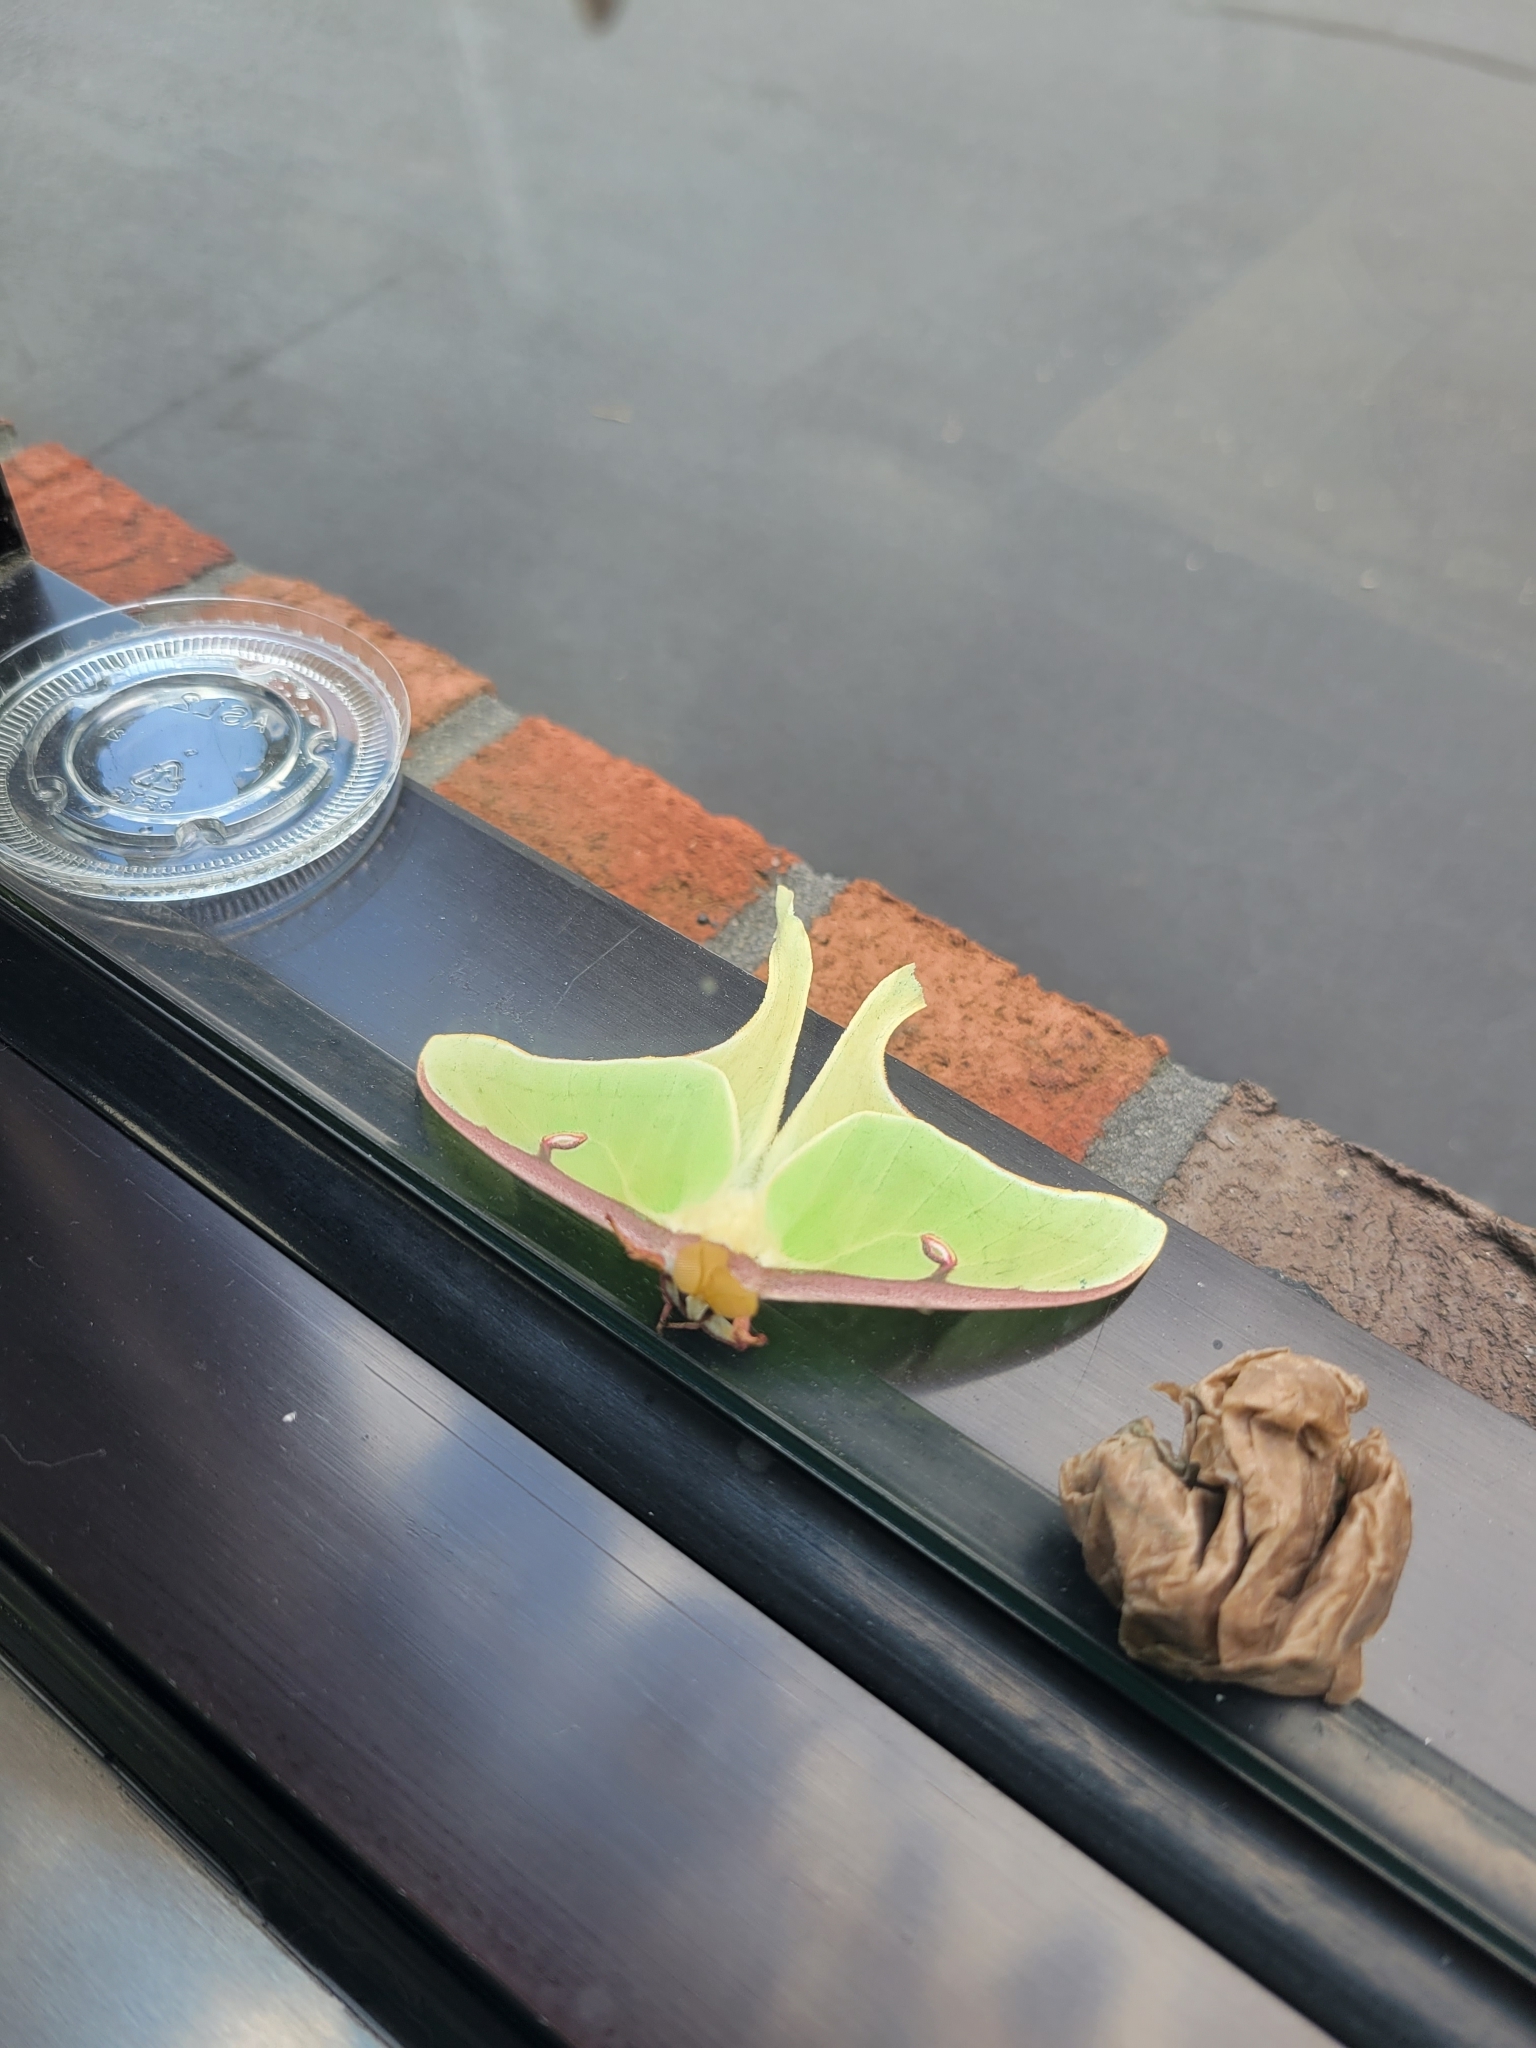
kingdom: Animalia
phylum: Arthropoda
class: Insecta
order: Lepidoptera
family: Saturniidae
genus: Actias
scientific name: Actias luna
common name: Luna moth
